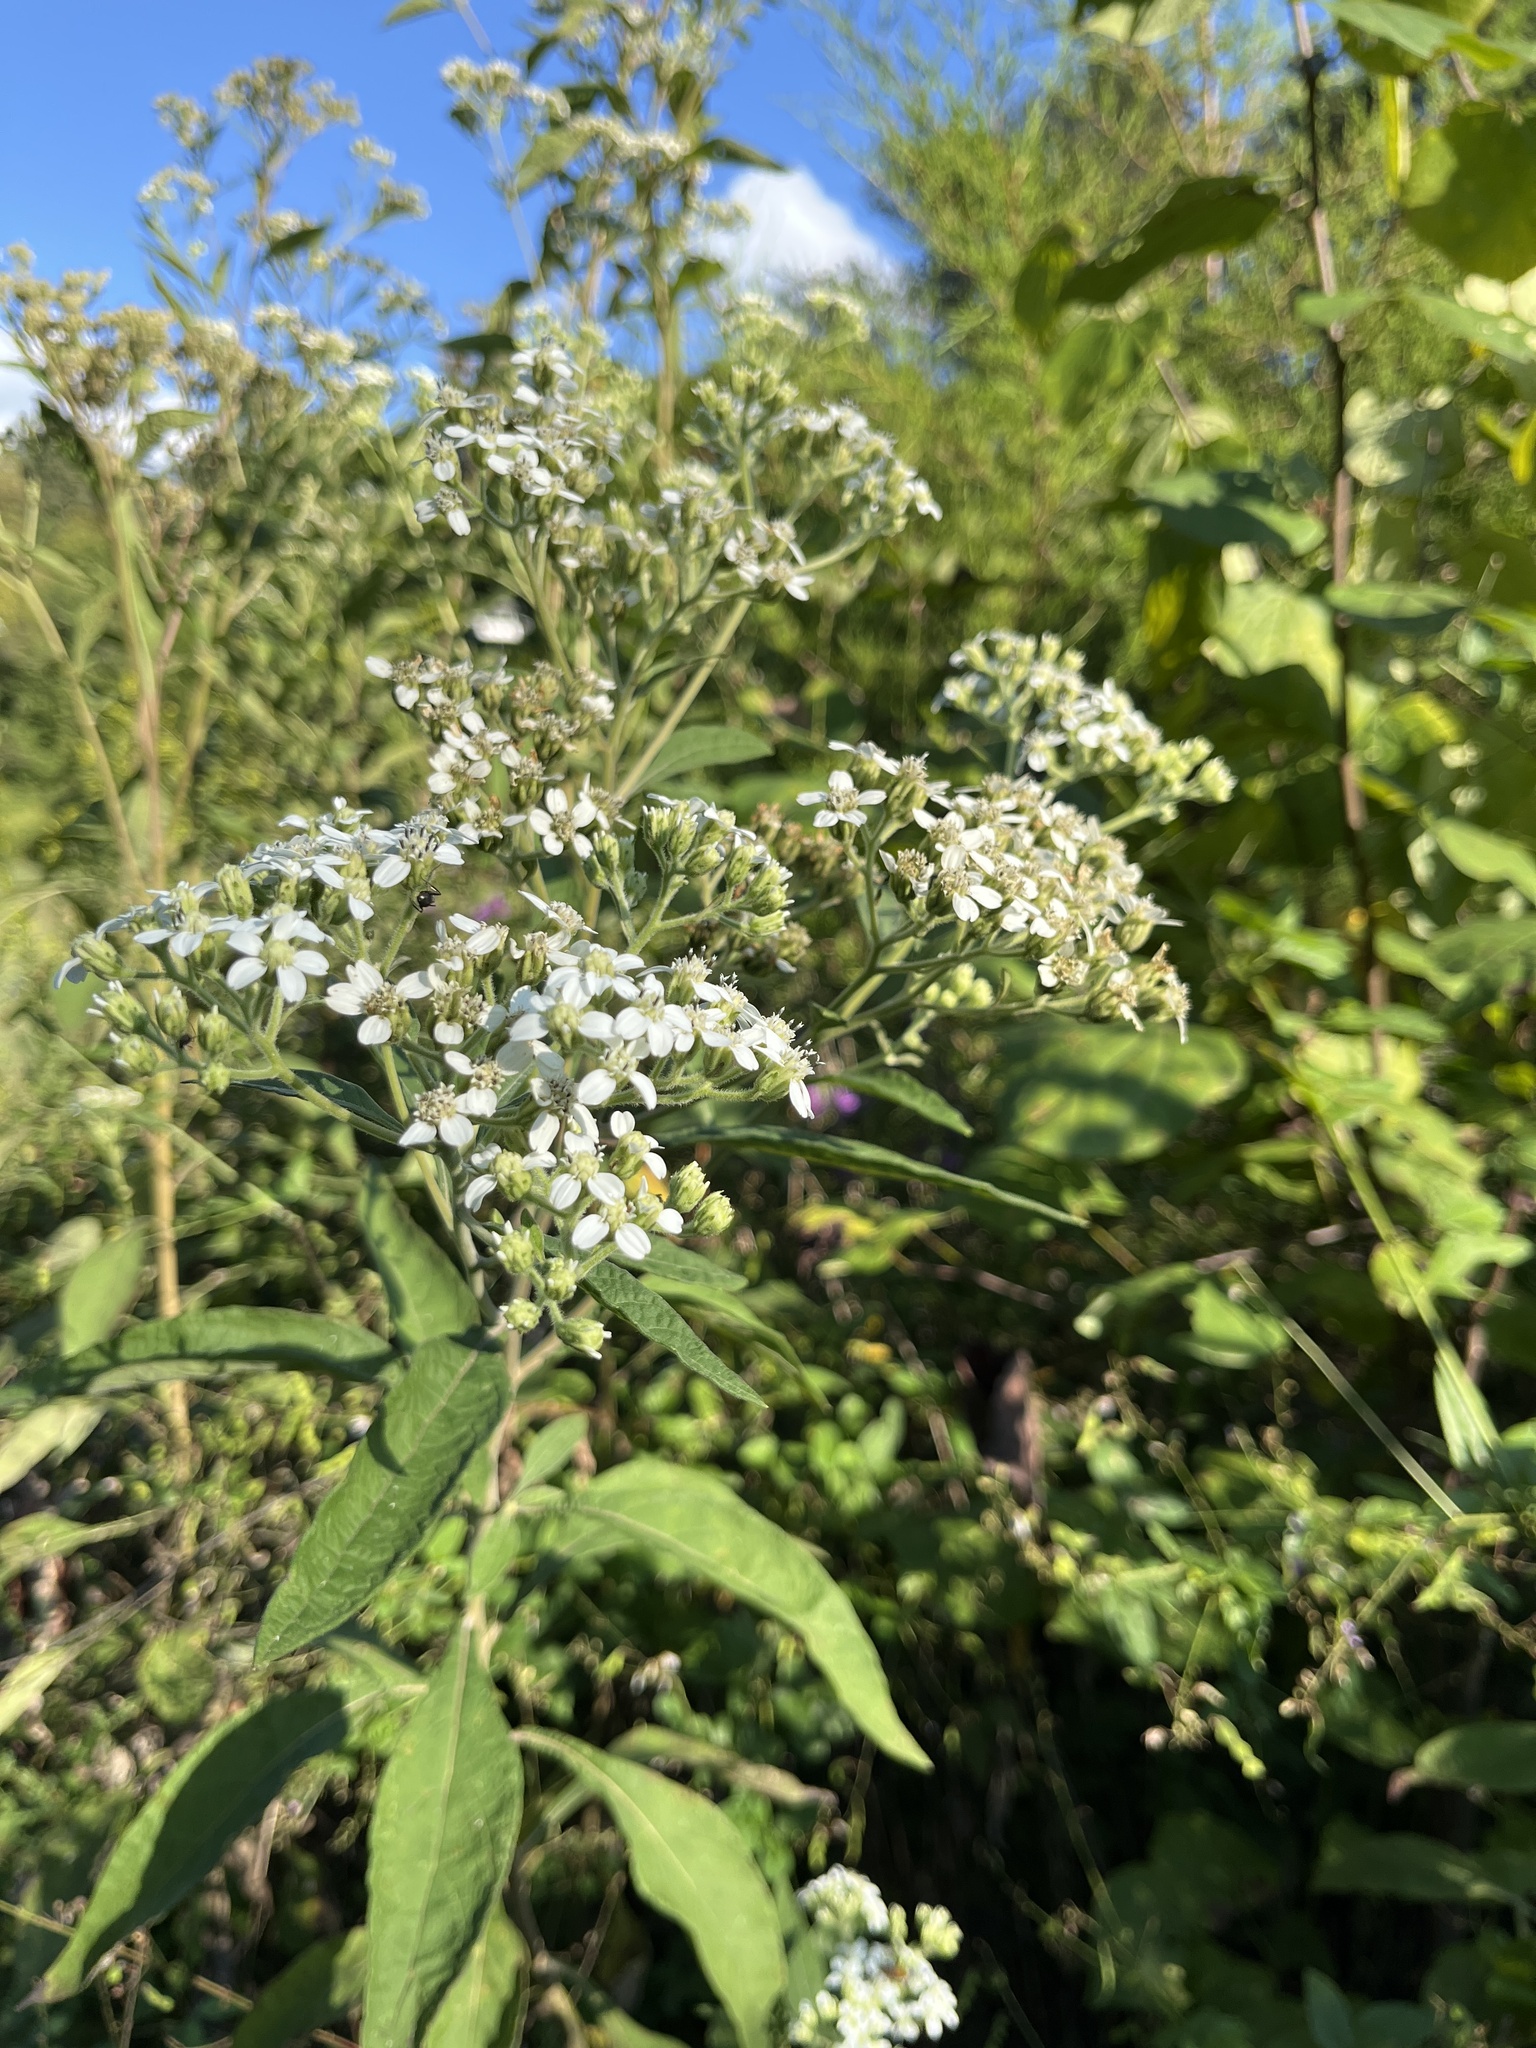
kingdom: Plantae
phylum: Tracheophyta
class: Magnoliopsida
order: Asterales
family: Asteraceae
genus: Verbesina
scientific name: Verbesina virginica
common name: Frostweed
